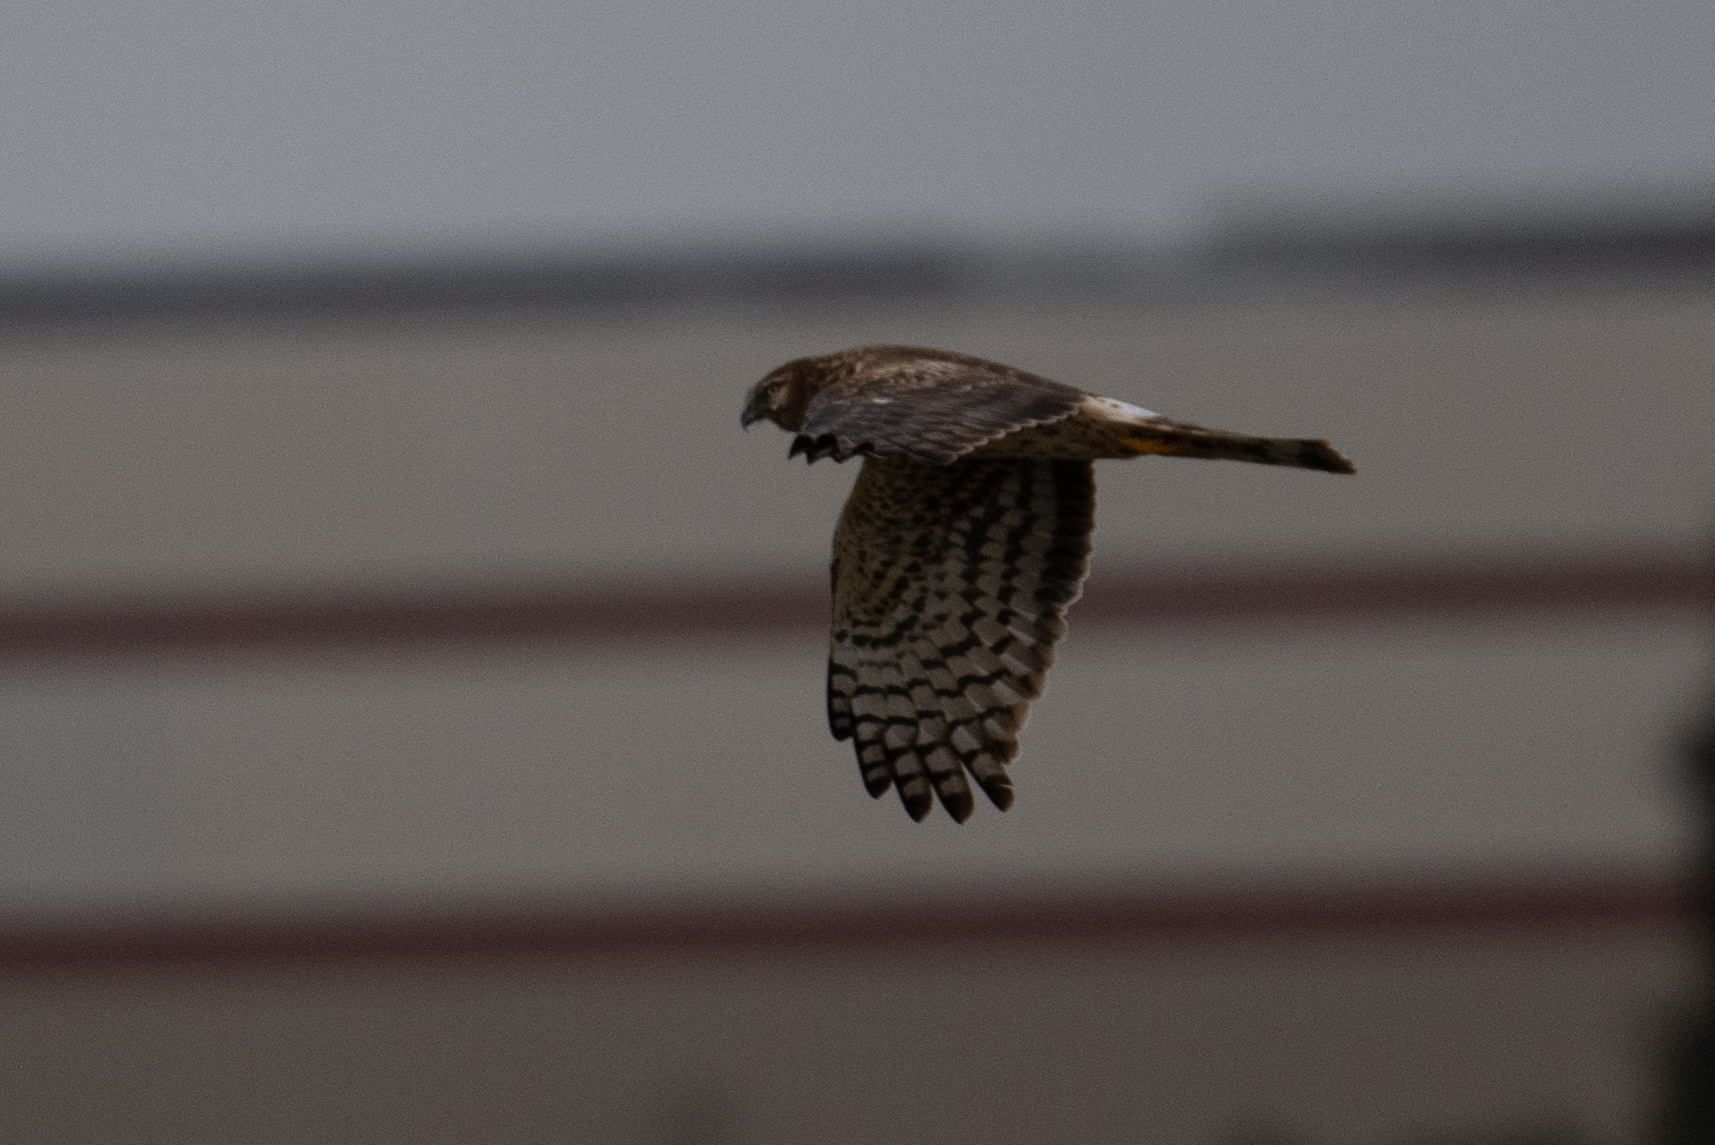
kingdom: Animalia
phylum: Chordata
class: Aves
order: Accipitriformes
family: Accipitridae
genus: Circus
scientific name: Circus cyaneus
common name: Hen harrier
